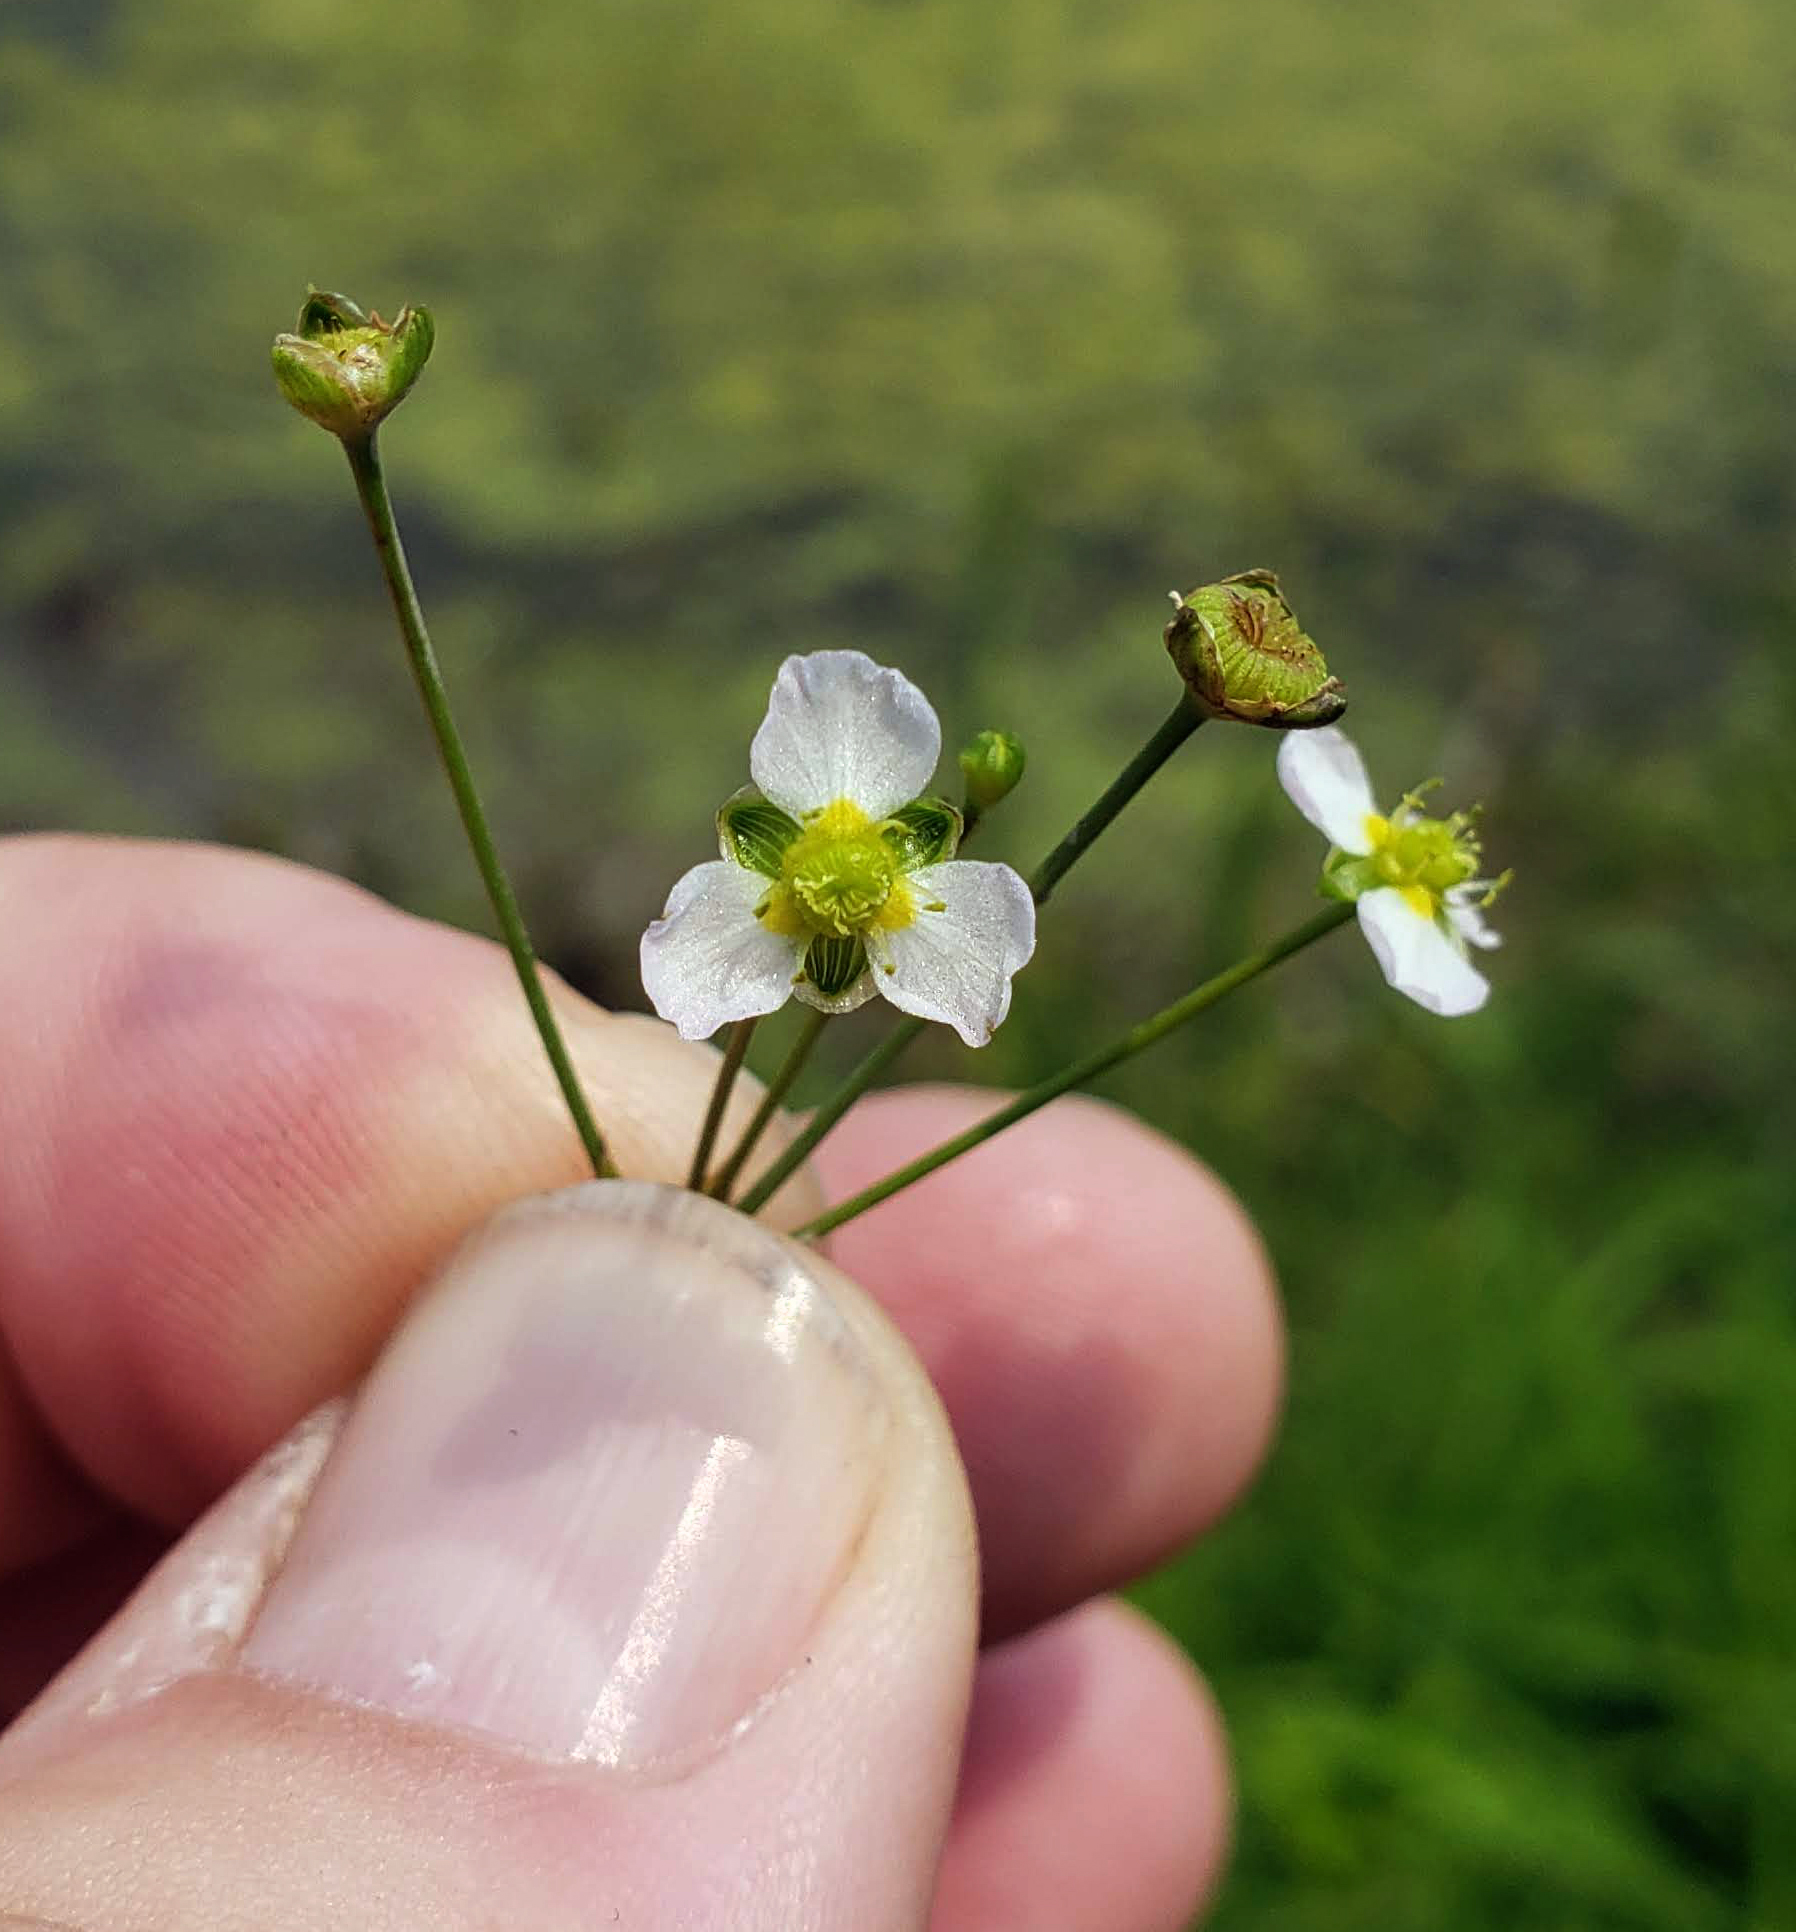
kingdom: Plantae
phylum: Tracheophyta
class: Liliopsida
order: Alismatales
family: Alismataceae
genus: Alisma
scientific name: Alisma triviale
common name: Northern water-plantain
